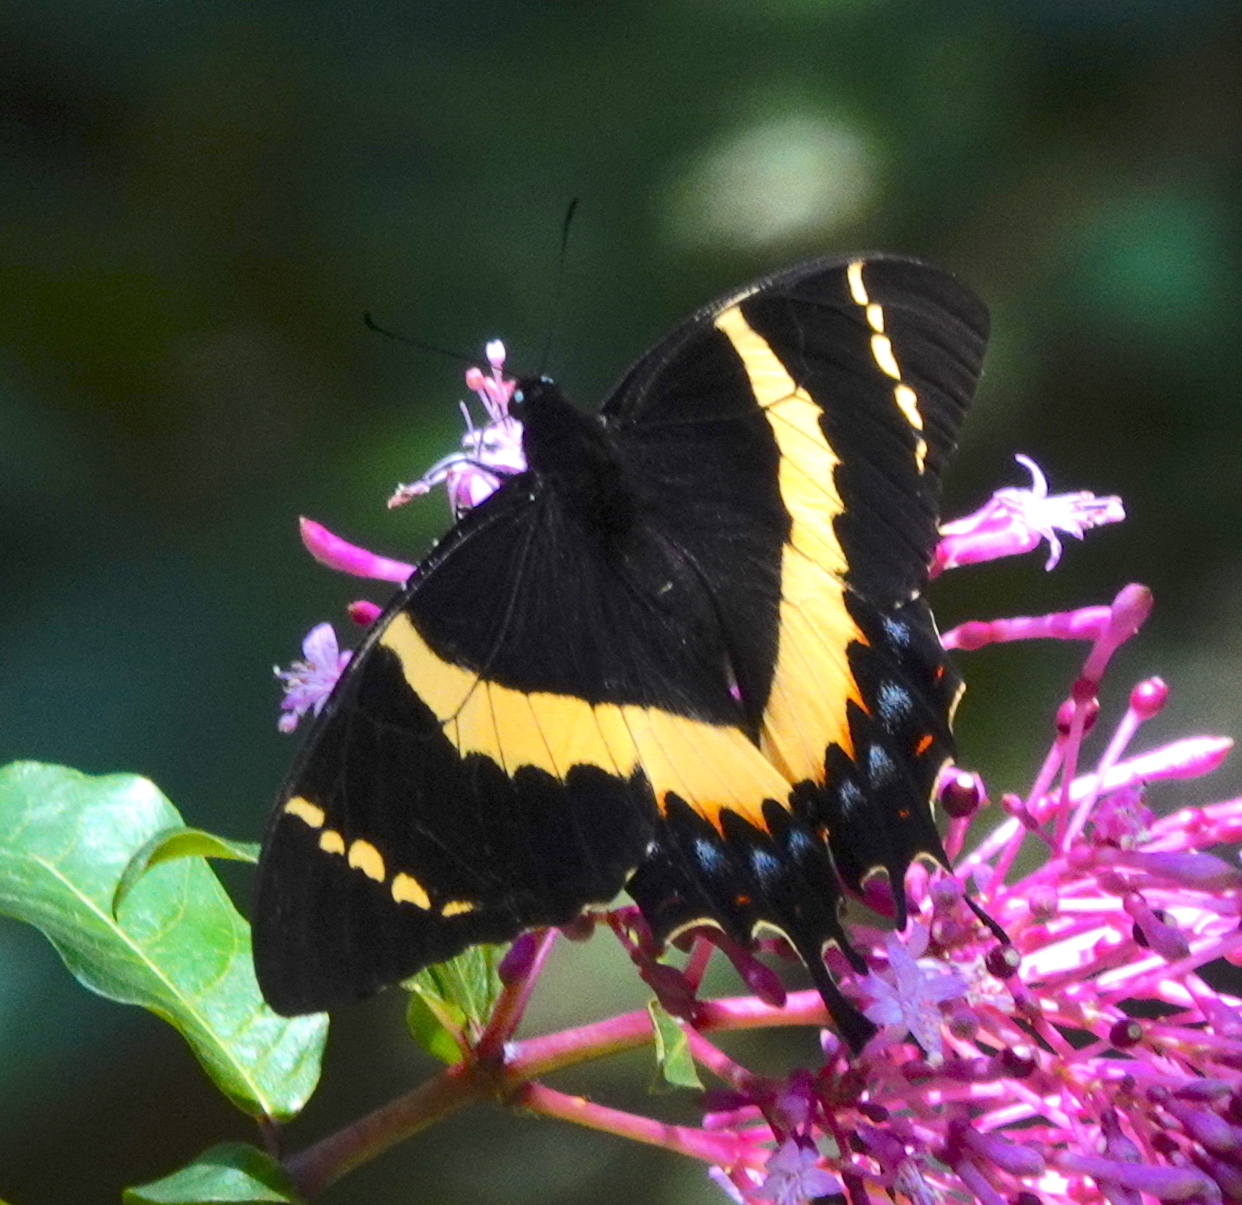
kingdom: Animalia
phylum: Arthropoda
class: Insecta
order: Lepidoptera
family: Papilionidae
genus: Papilio
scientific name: Papilio garamas
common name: Magnificent swallowtail
